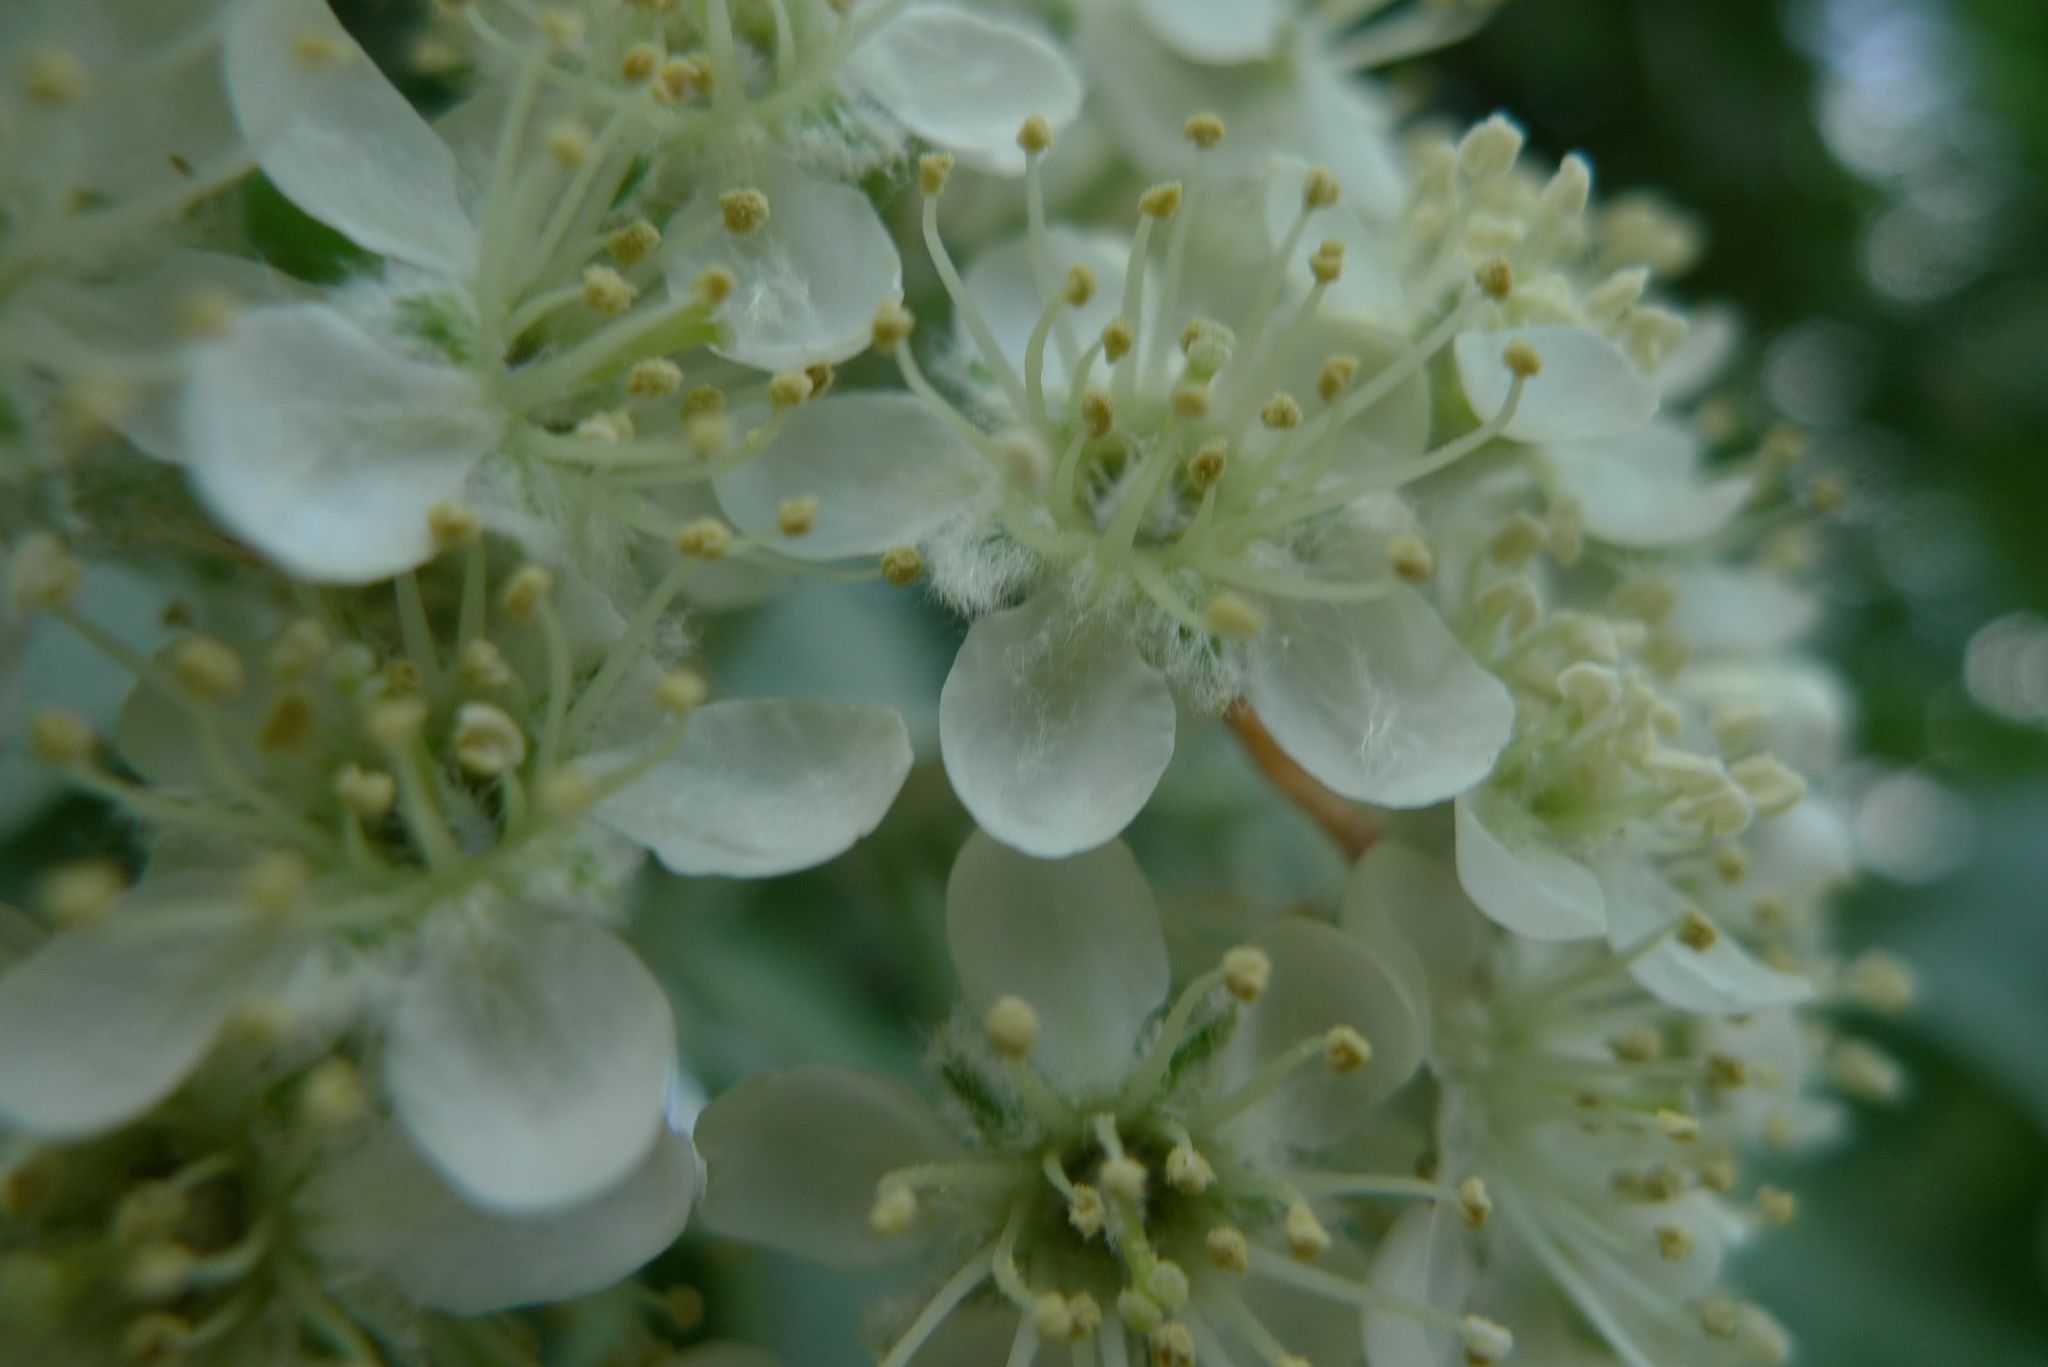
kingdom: Plantae
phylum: Tracheophyta
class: Magnoliopsida
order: Rosales
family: Rosaceae
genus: Aria
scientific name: Aria edulis
